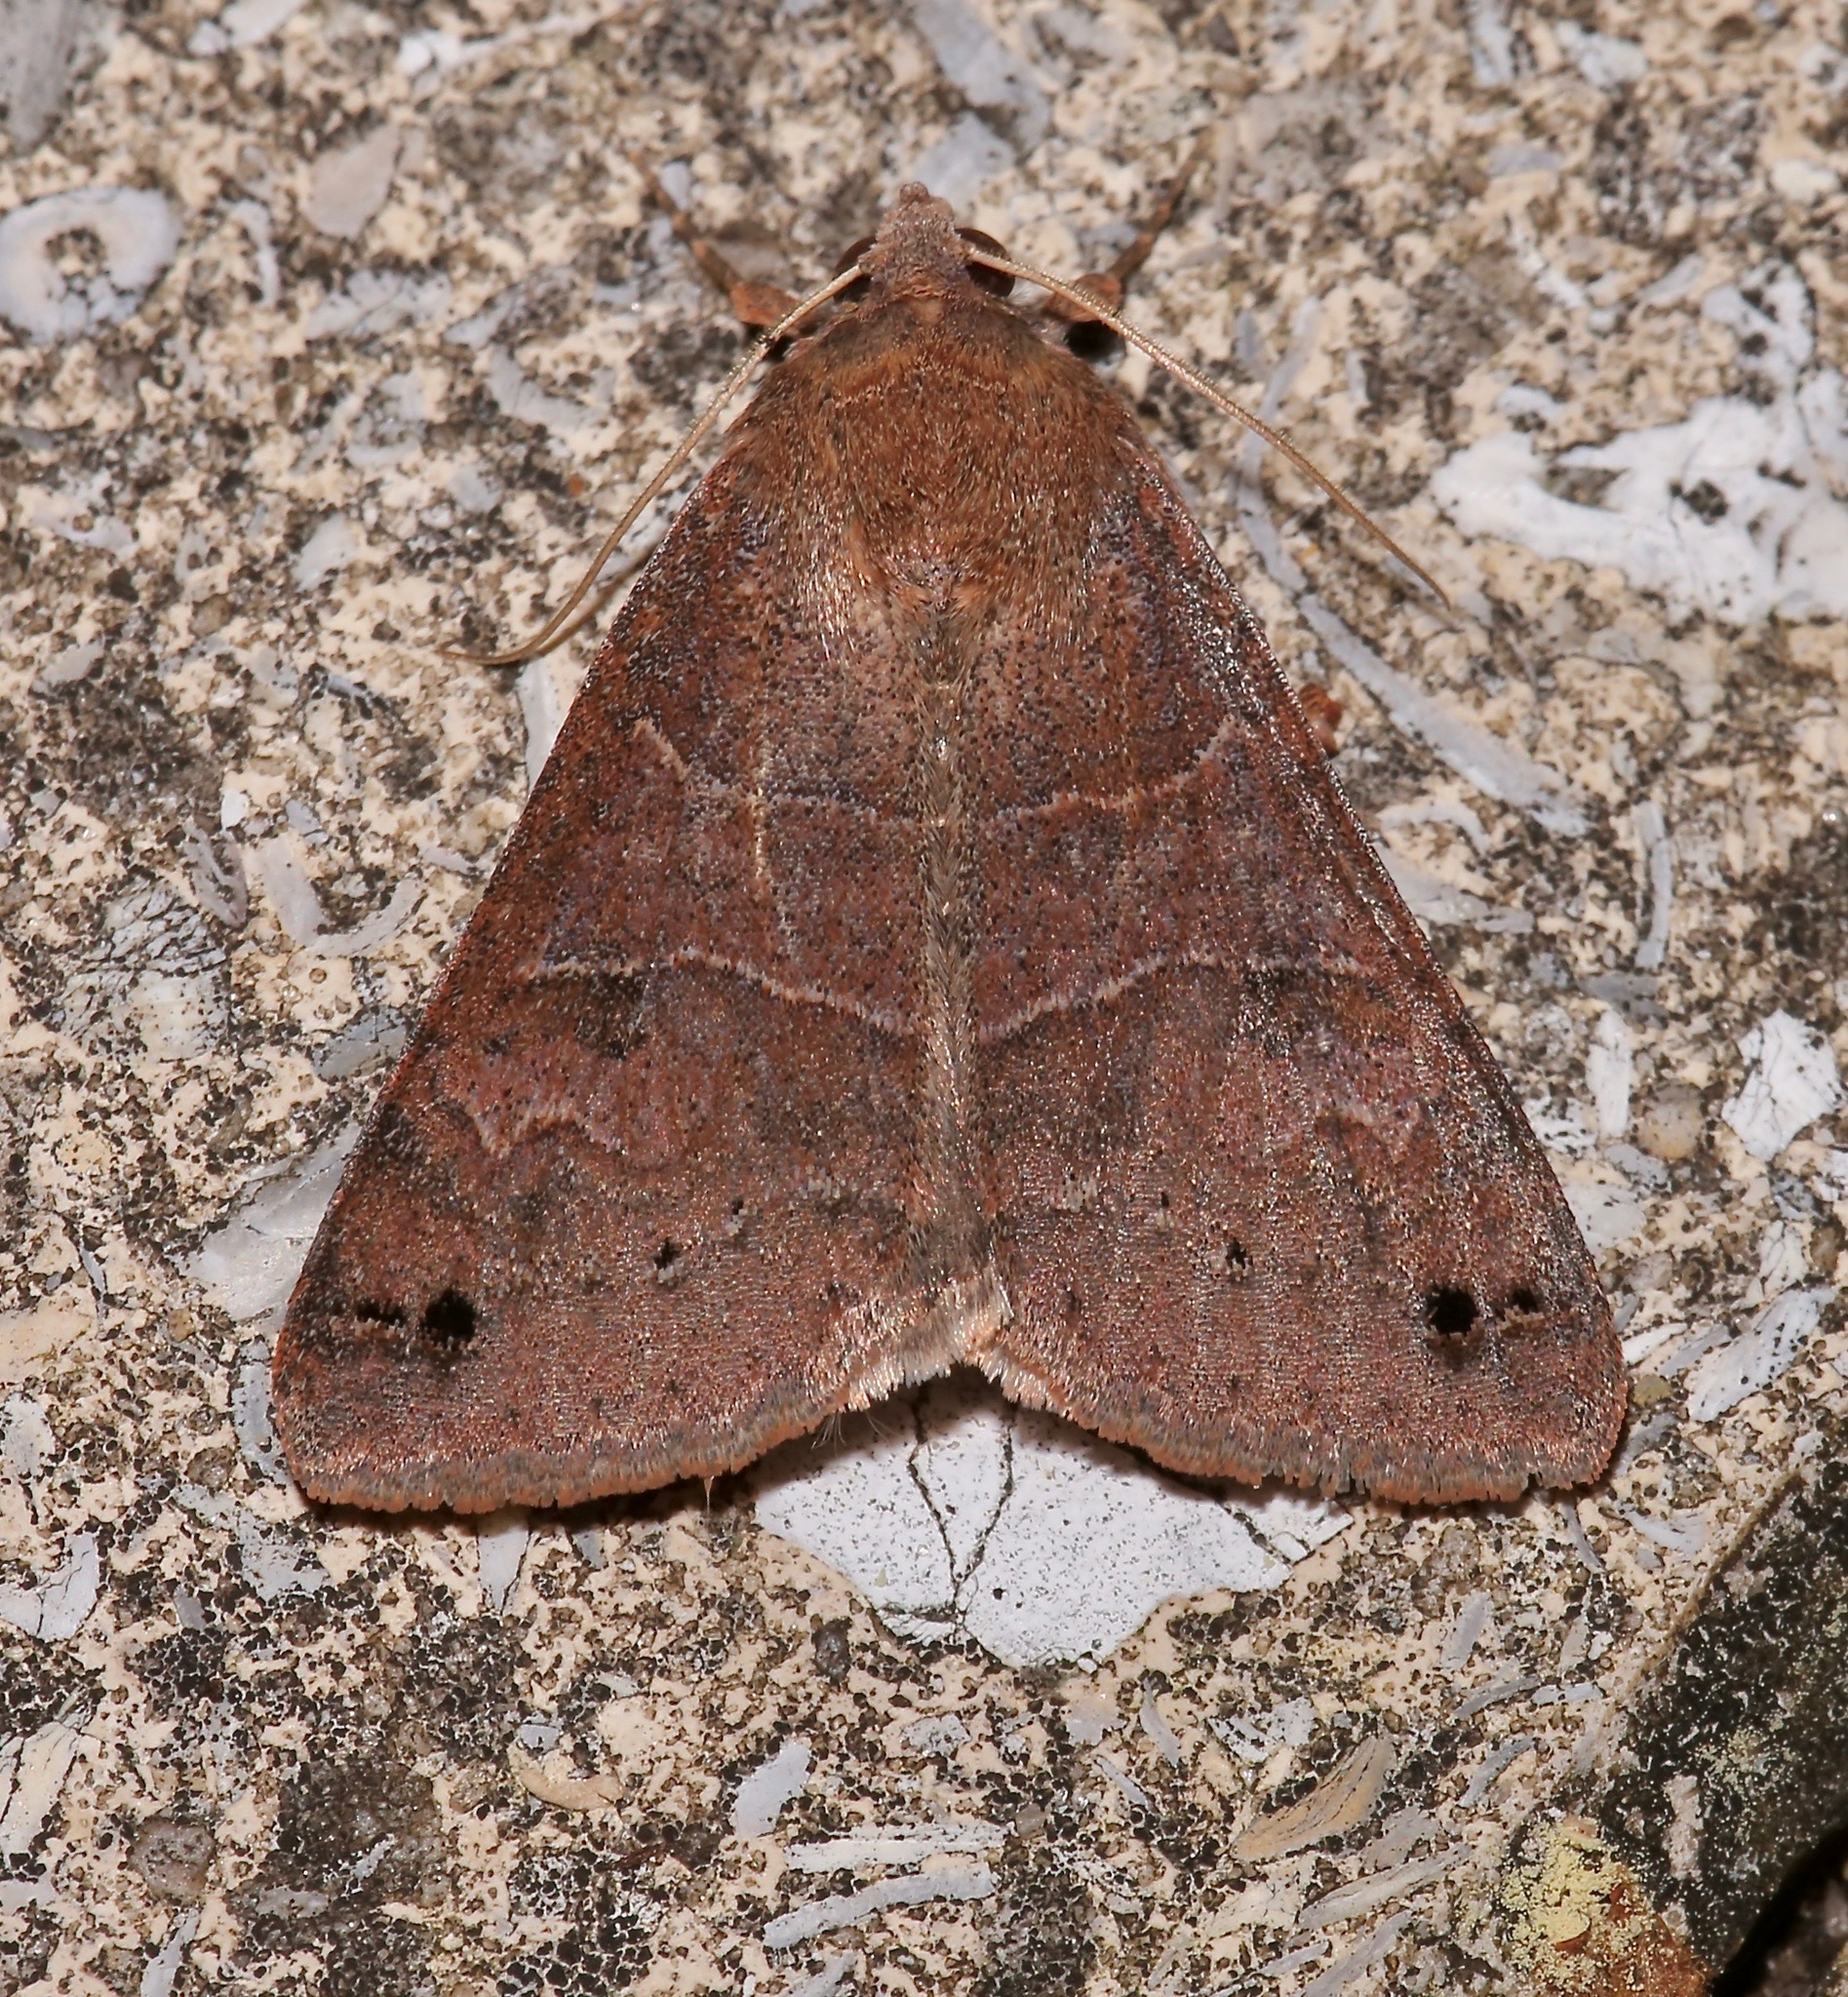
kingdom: Animalia
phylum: Arthropoda
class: Insecta
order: Lepidoptera
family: Erebidae
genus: Cissusa
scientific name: Cissusa spadix
